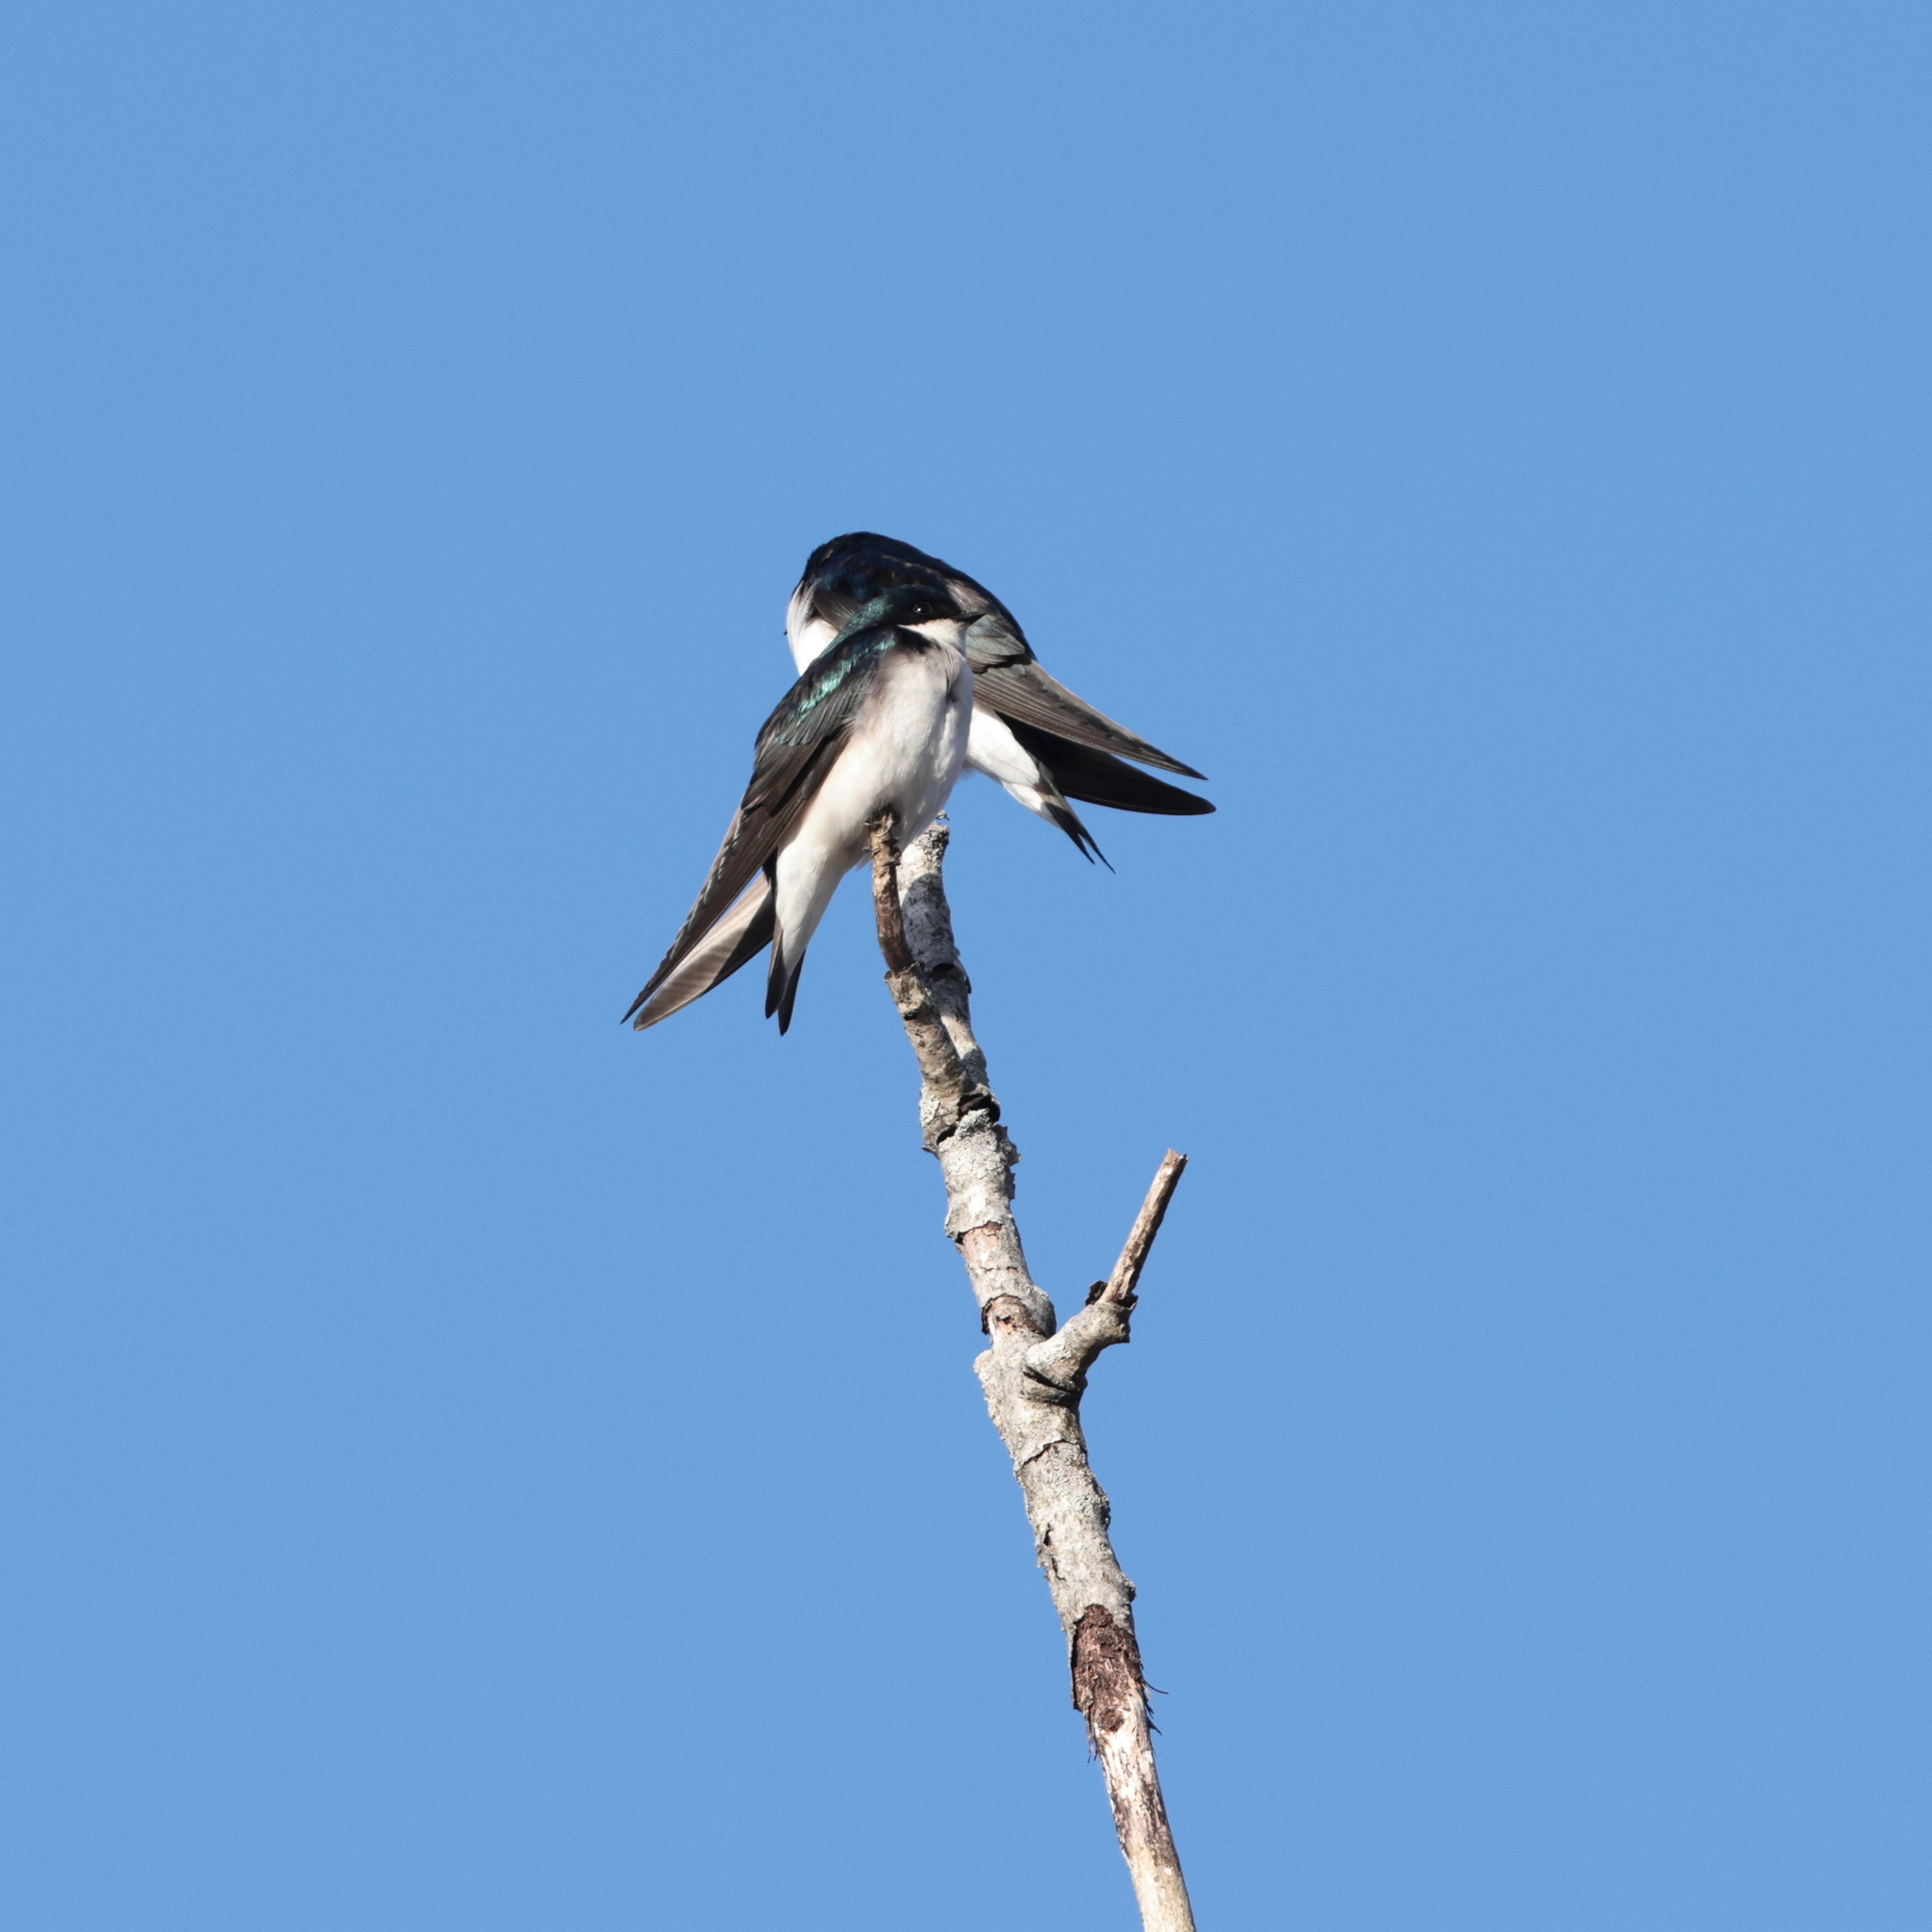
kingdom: Animalia
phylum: Chordata
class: Aves
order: Passeriformes
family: Hirundinidae
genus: Tachycineta
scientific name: Tachycineta bicolor
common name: Tree swallow
